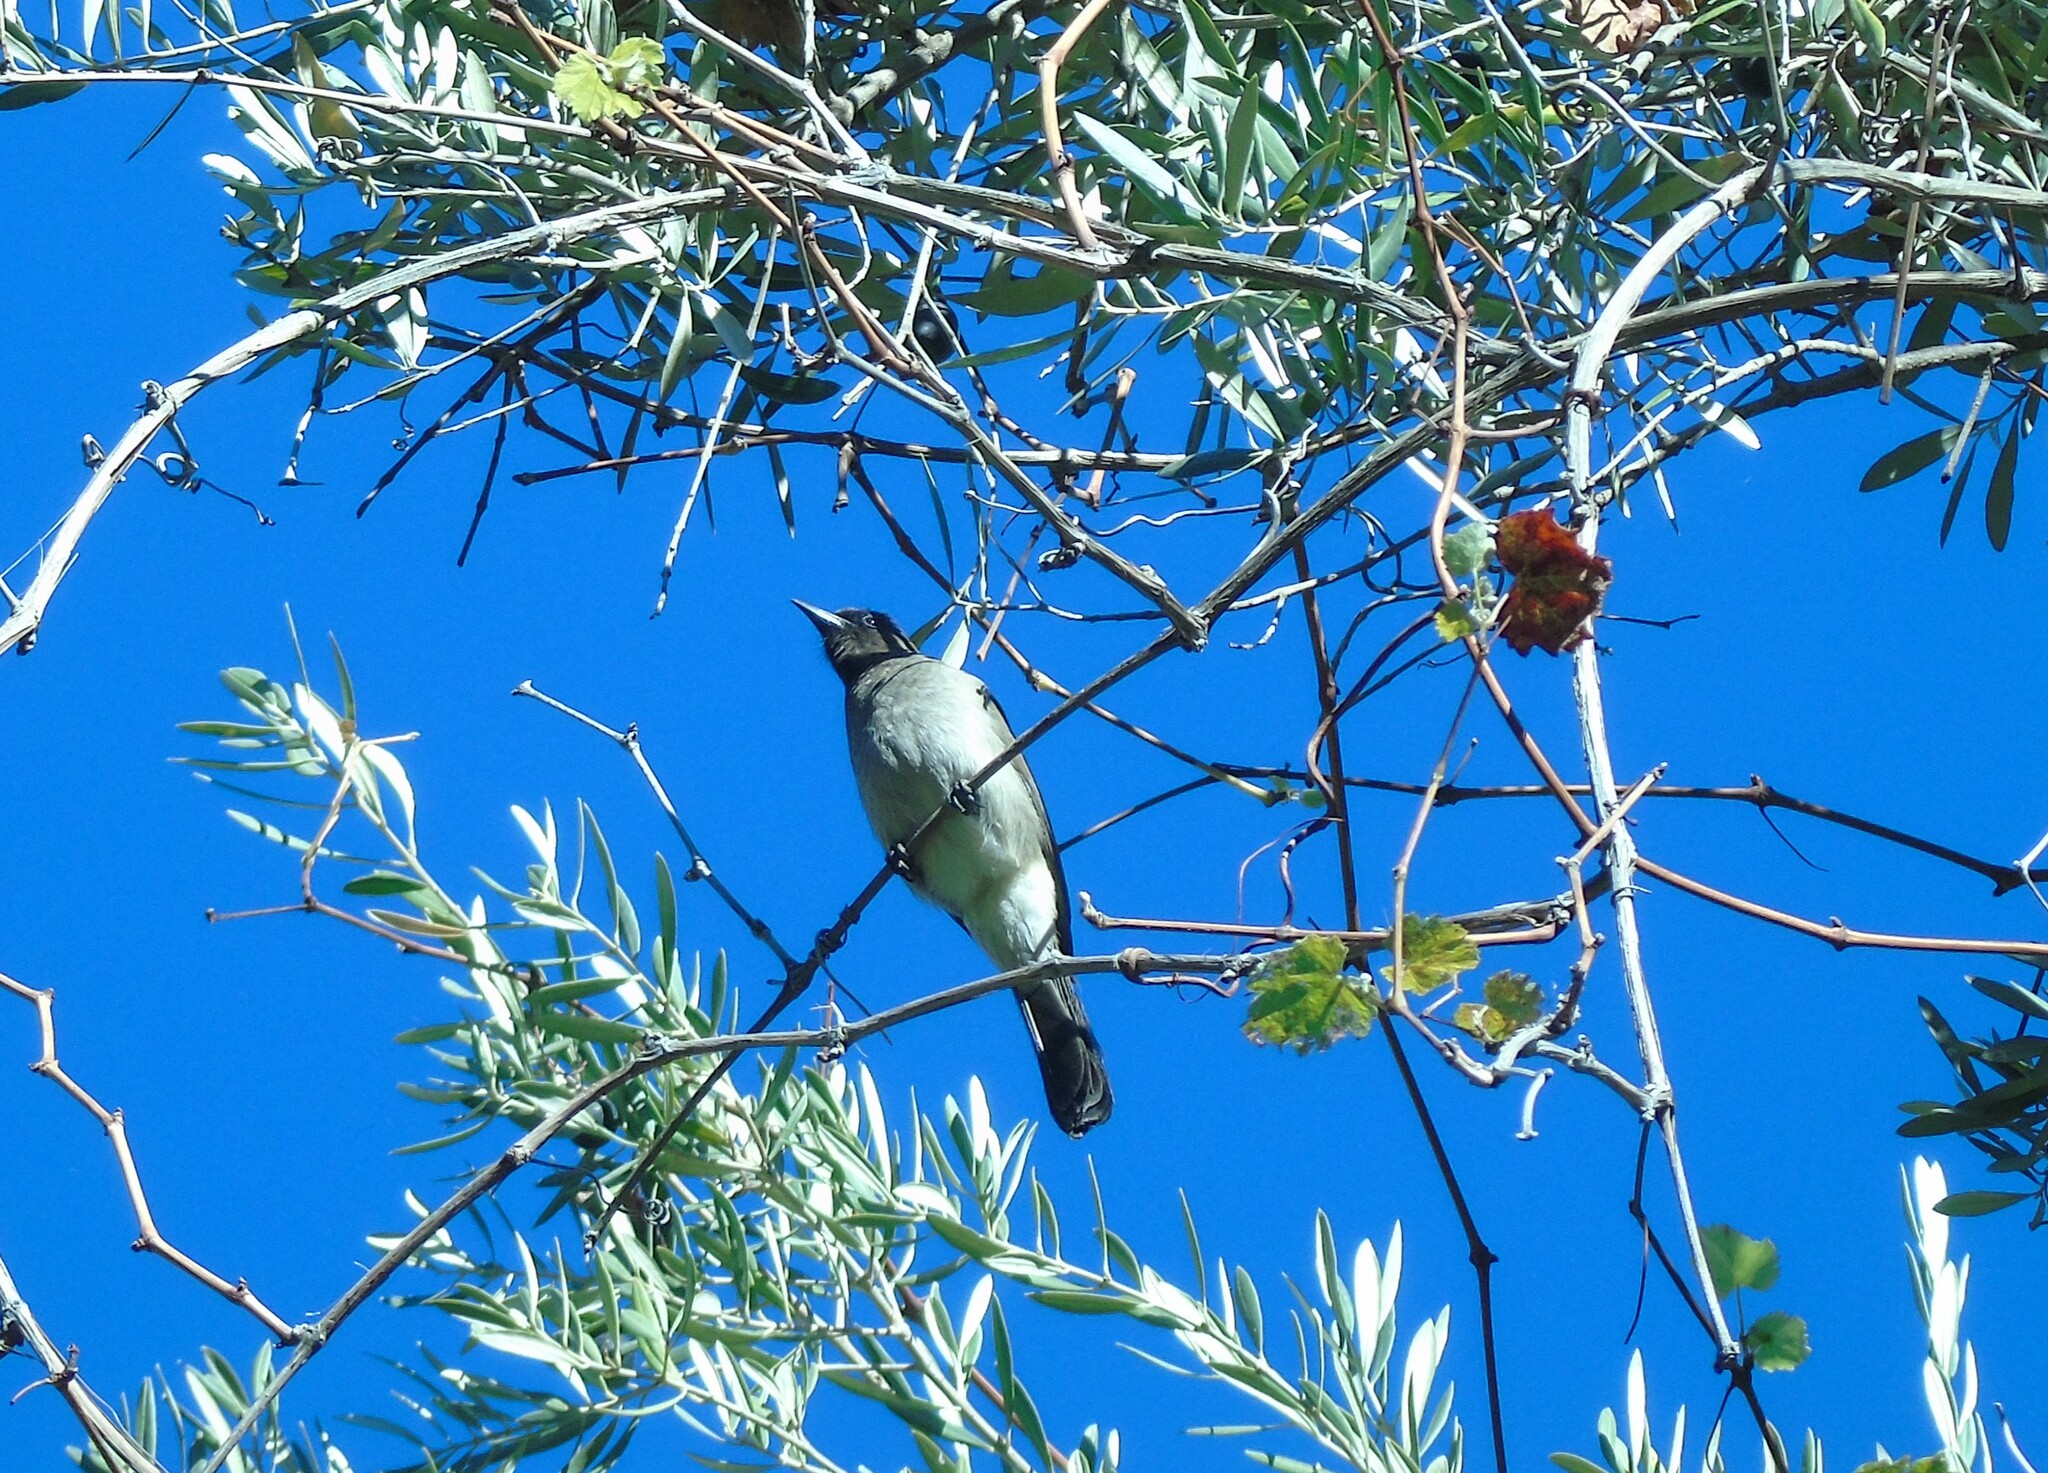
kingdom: Animalia
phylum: Chordata
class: Aves
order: Passeriformes
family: Pycnonotidae
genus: Pycnonotus
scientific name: Pycnonotus barbatus
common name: Common bulbul
